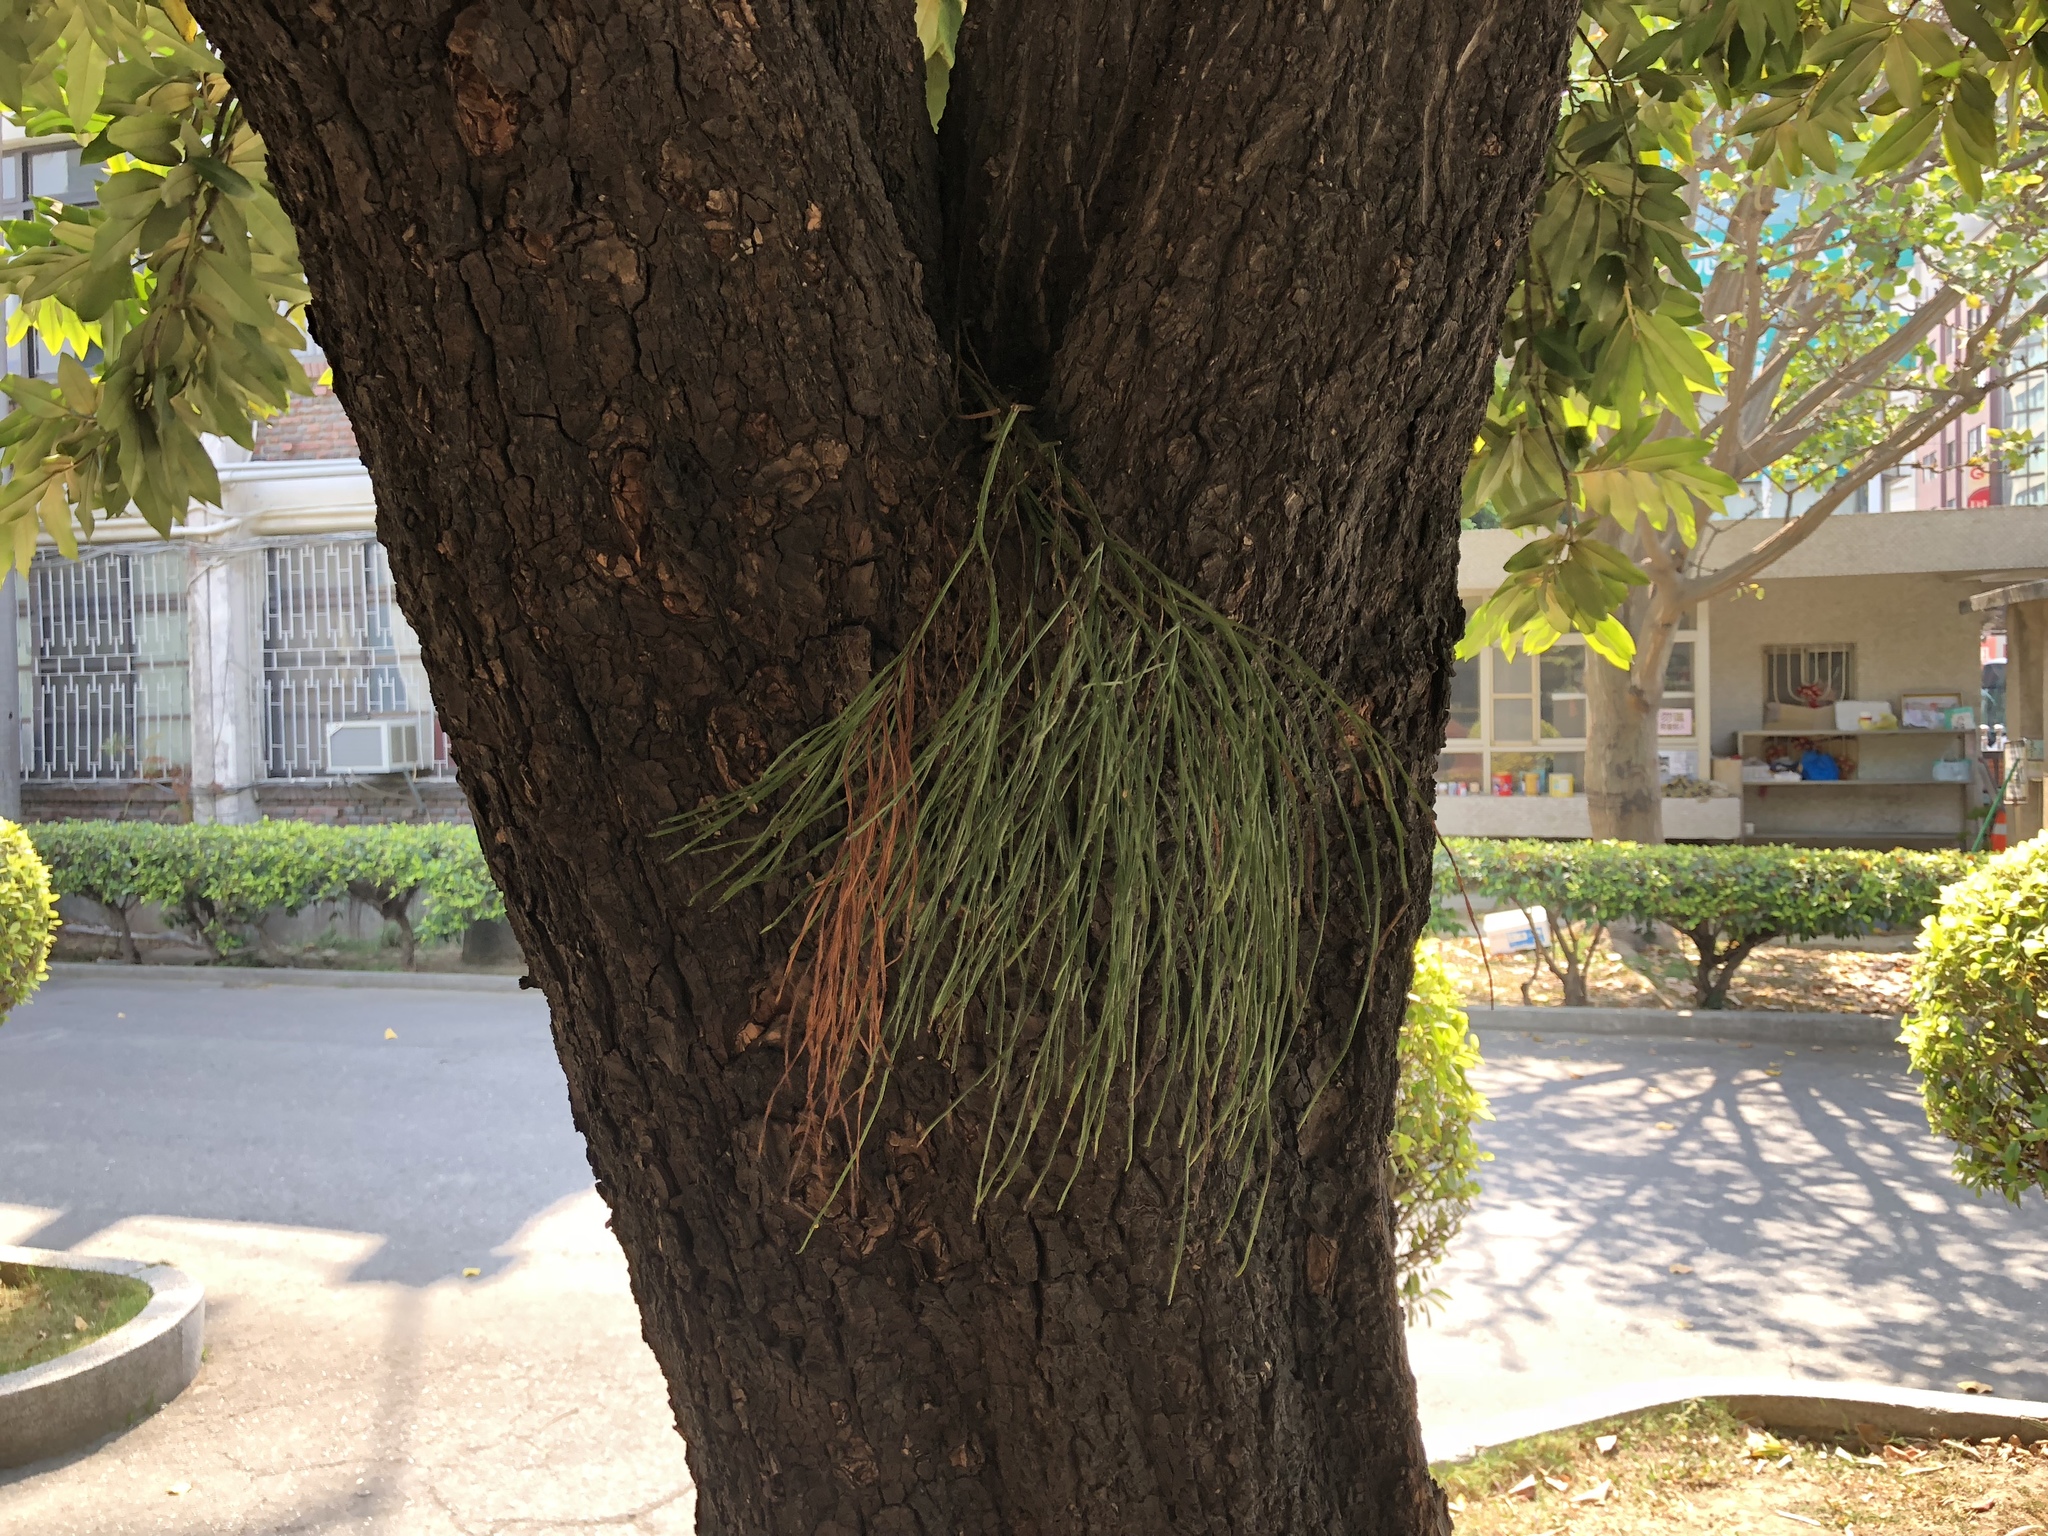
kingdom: Plantae
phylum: Tracheophyta
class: Polypodiopsida
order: Psilotales
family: Psilotaceae
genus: Psilotum
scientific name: Psilotum nudum
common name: Skeleton fork fern
